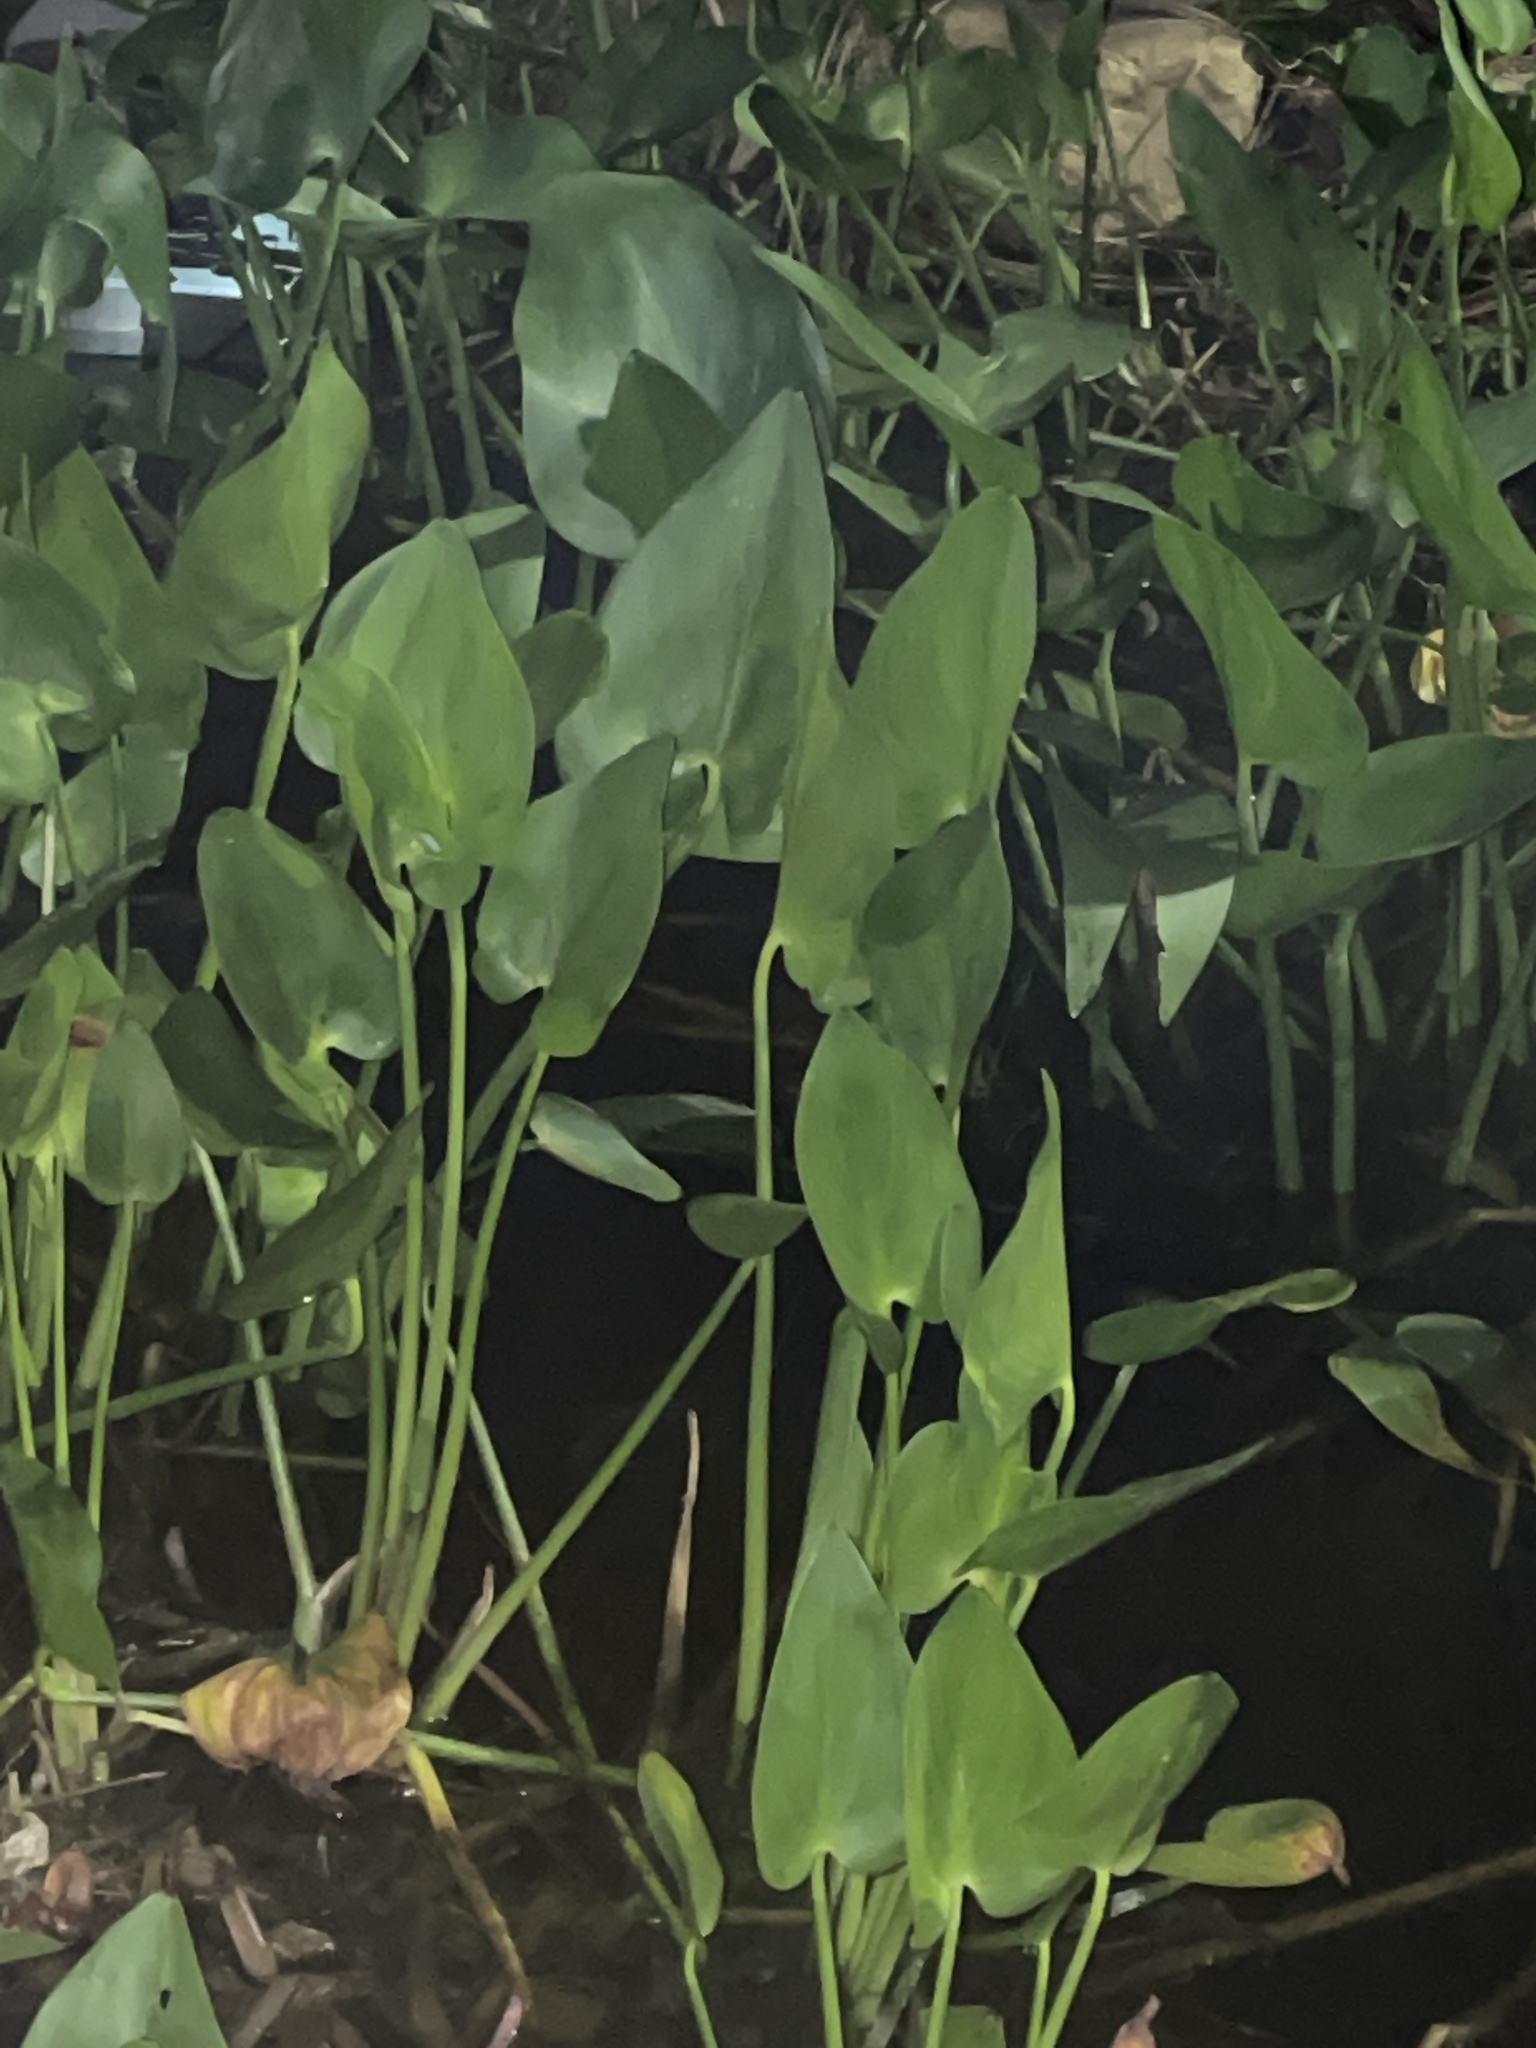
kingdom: Plantae
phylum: Tracheophyta
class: Liliopsida
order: Commelinales
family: Pontederiaceae
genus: Pontederia
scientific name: Pontederia cordata
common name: Pickerelweed
